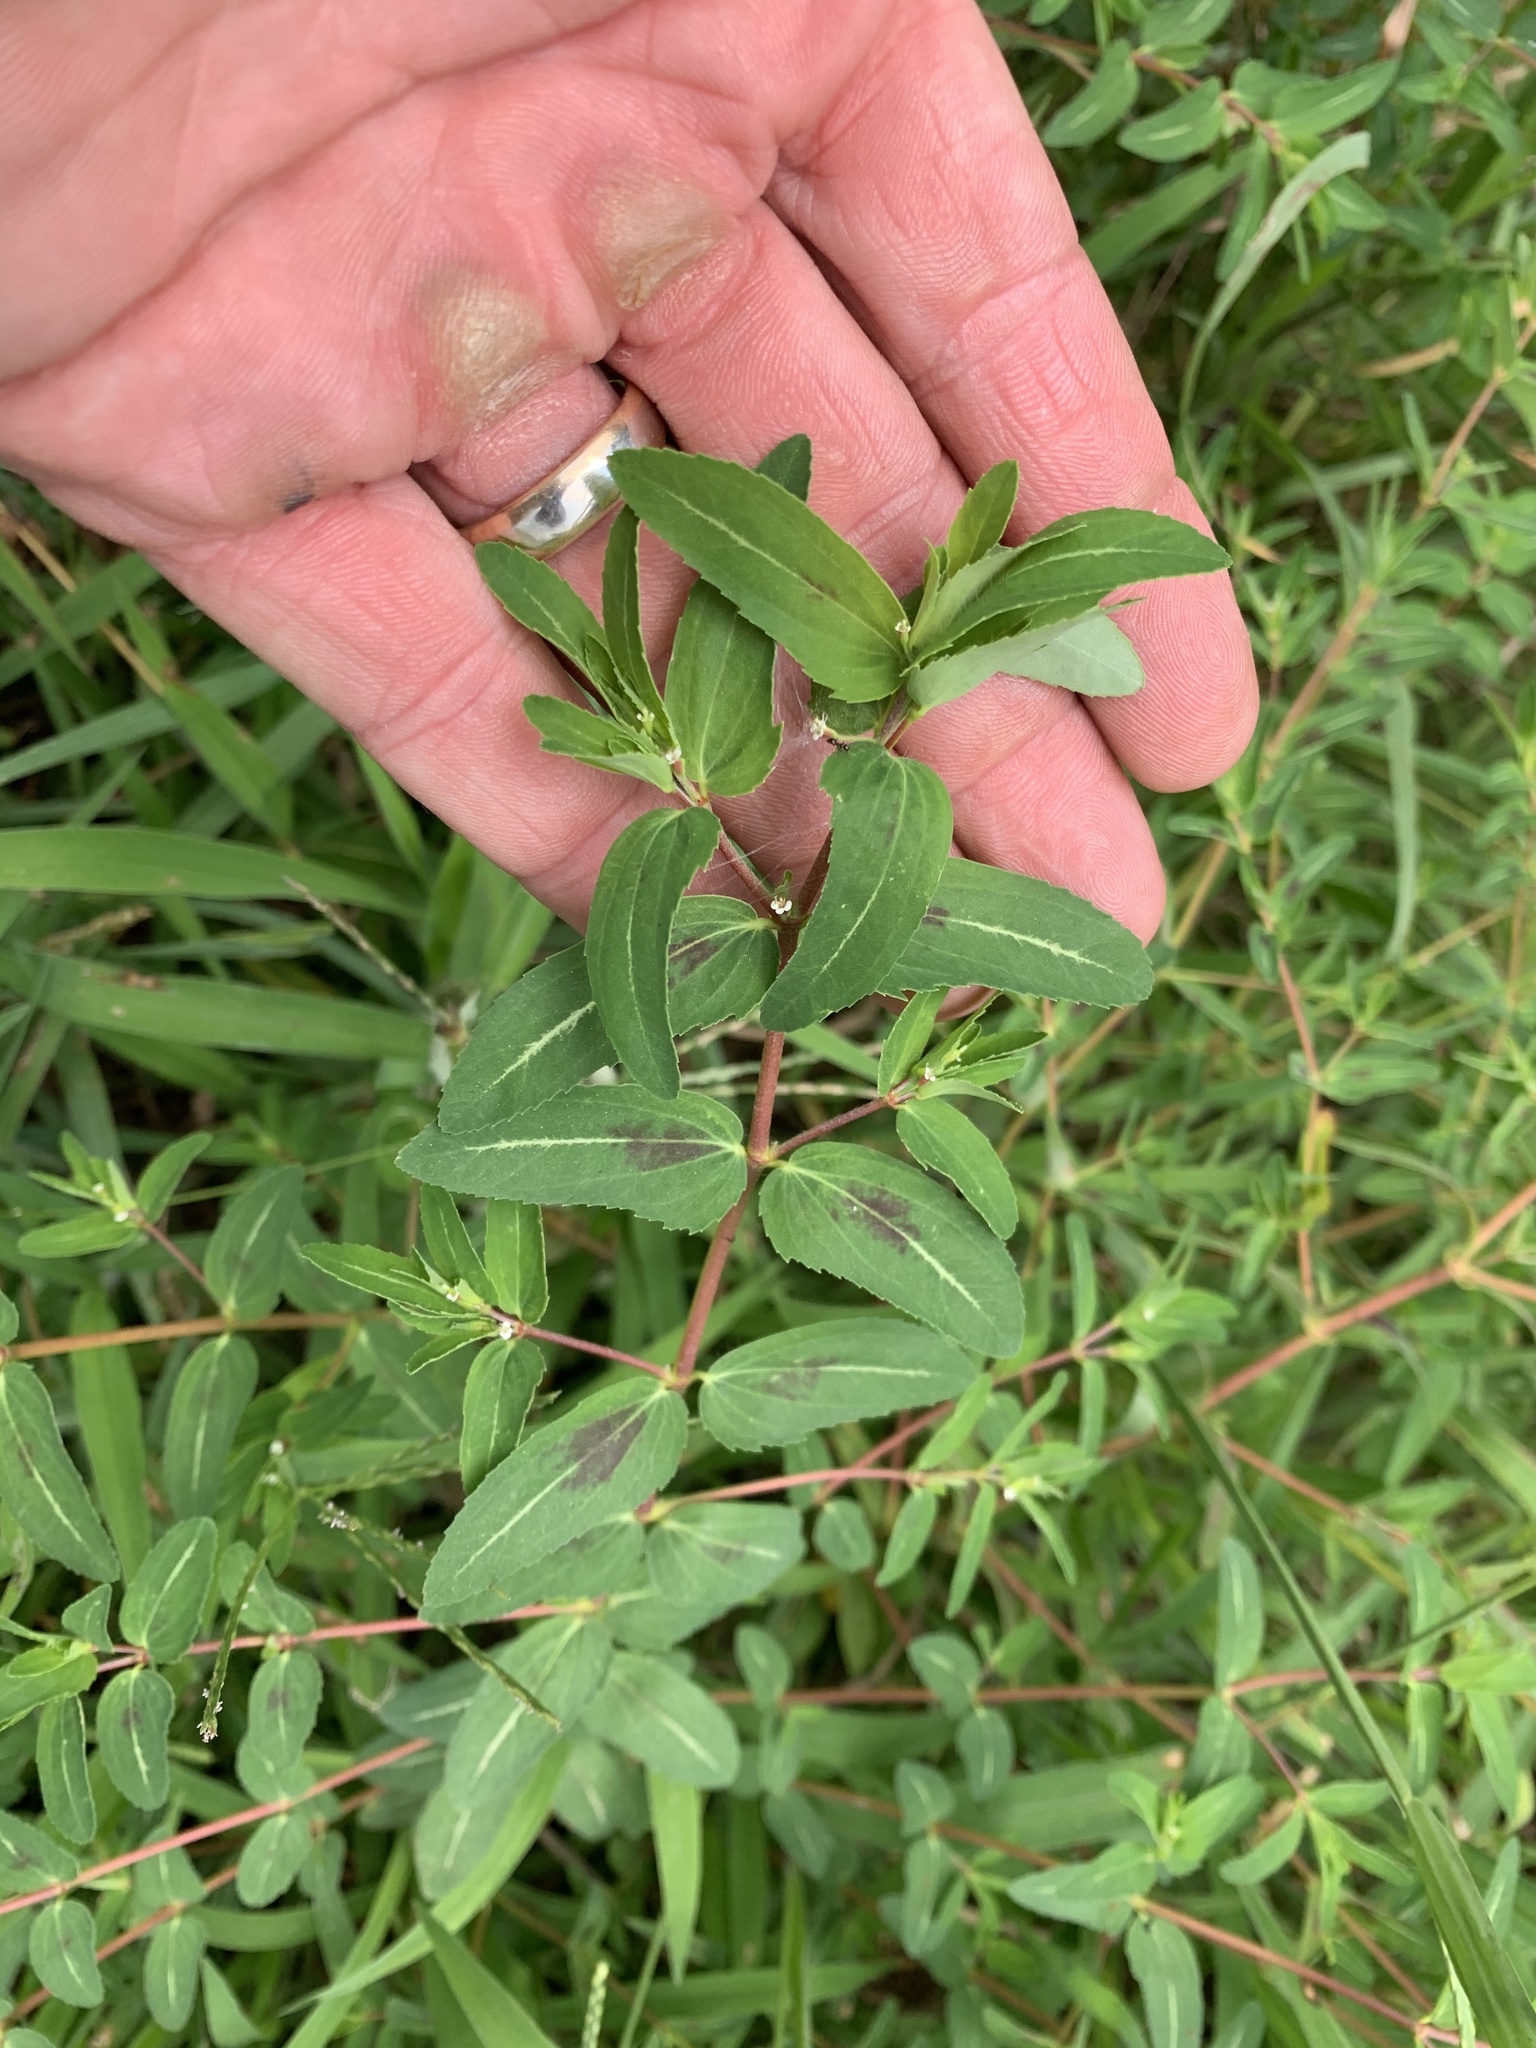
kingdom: Plantae
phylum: Tracheophyta
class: Magnoliopsida
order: Malpighiales
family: Euphorbiaceae
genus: Euphorbia
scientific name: Euphorbia nutans
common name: Eyebane
